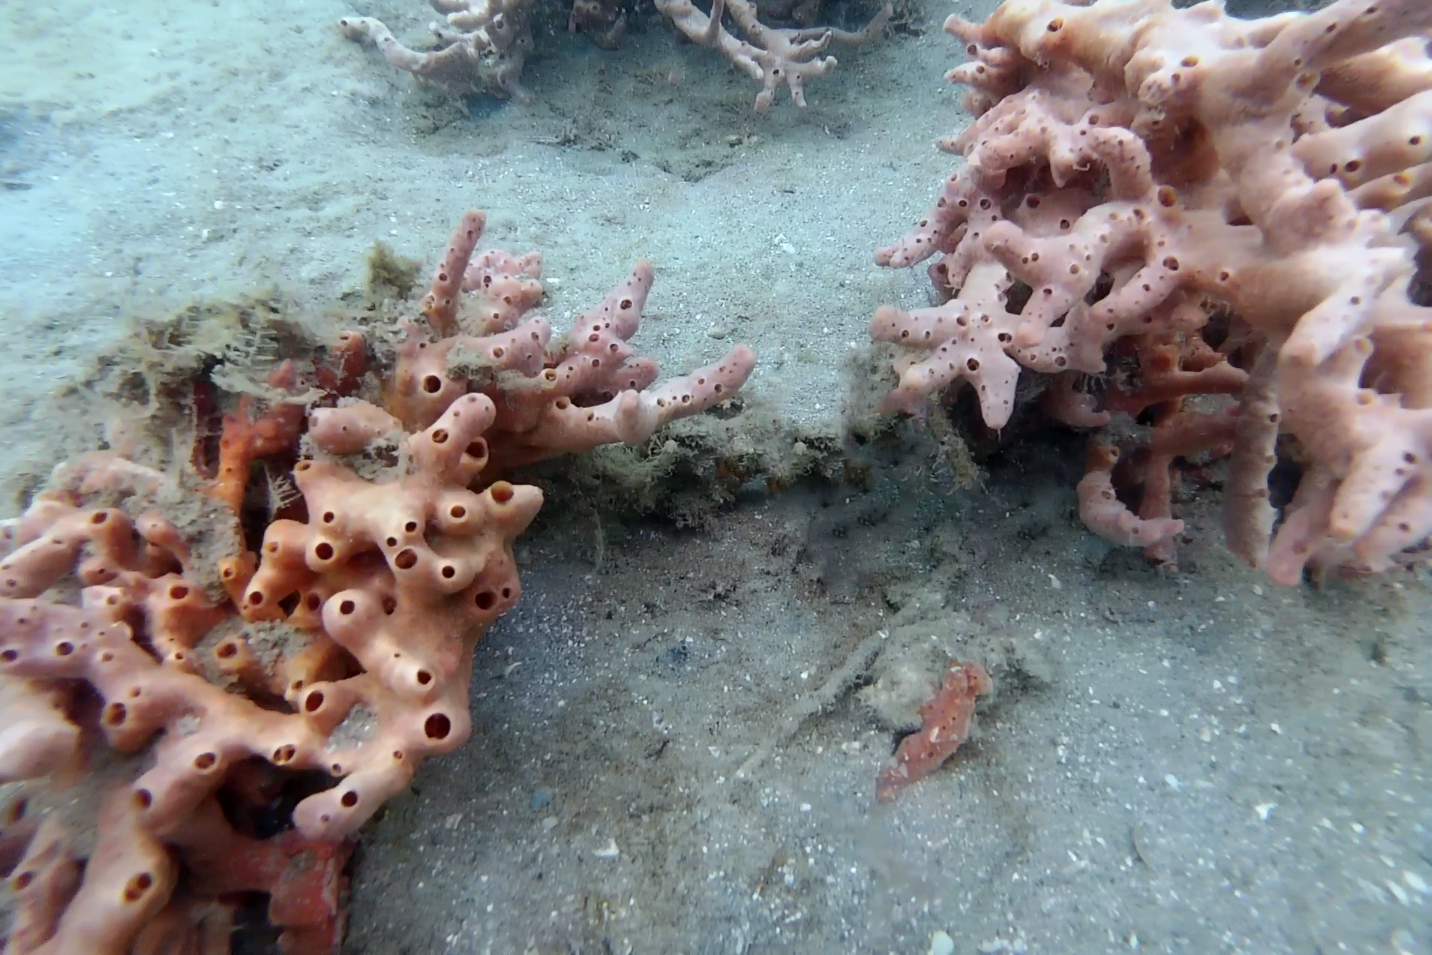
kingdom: Animalia
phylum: Porifera
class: Demospongiae
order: Poecilosclerida
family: Desmacididae
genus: Desmapsamma
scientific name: Desmapsamma anchorata
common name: Lumpy overgrowing sponge
